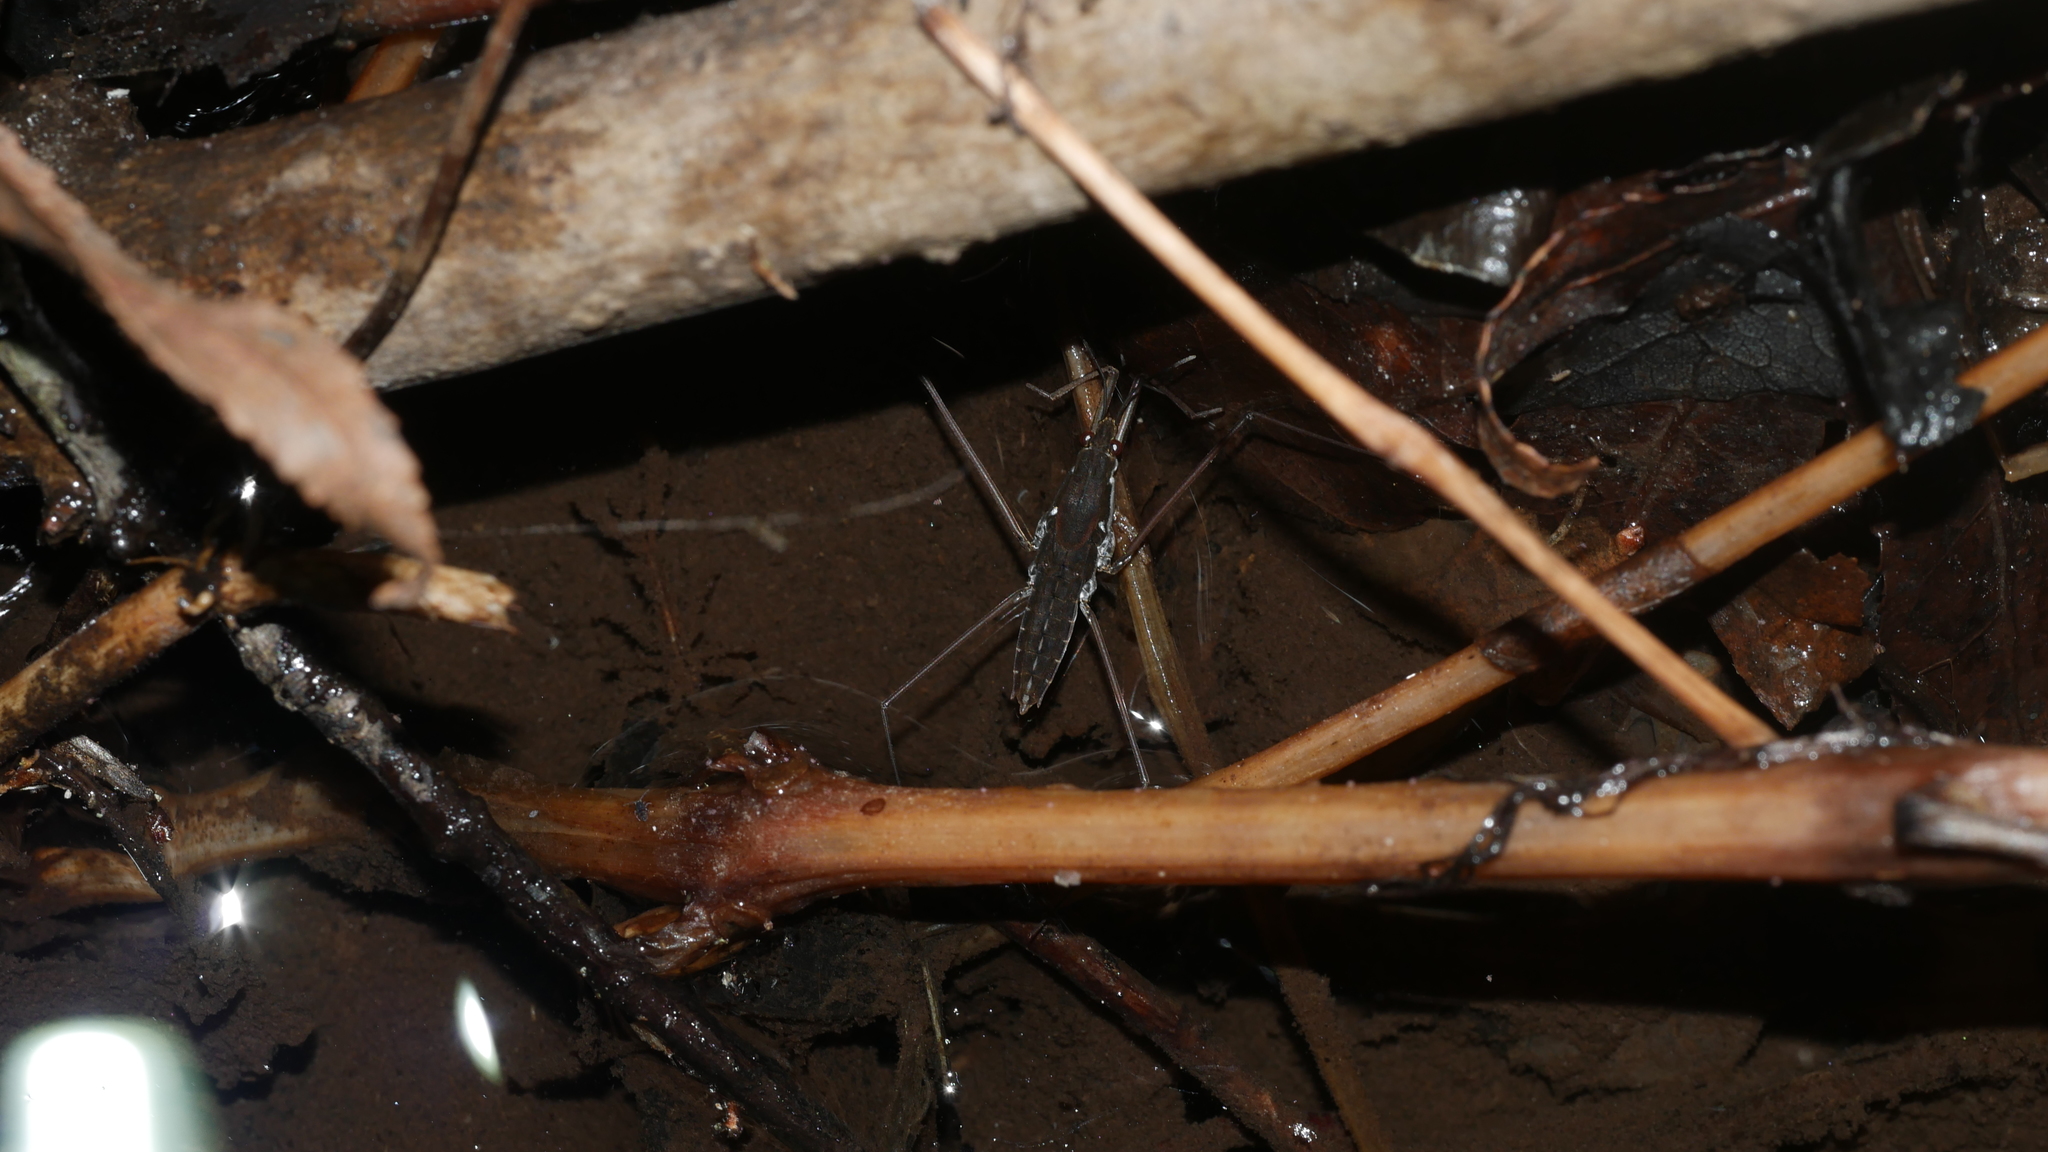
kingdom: Animalia
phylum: Arthropoda
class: Insecta
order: Hemiptera
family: Gerridae
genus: Aquarius
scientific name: Aquarius
